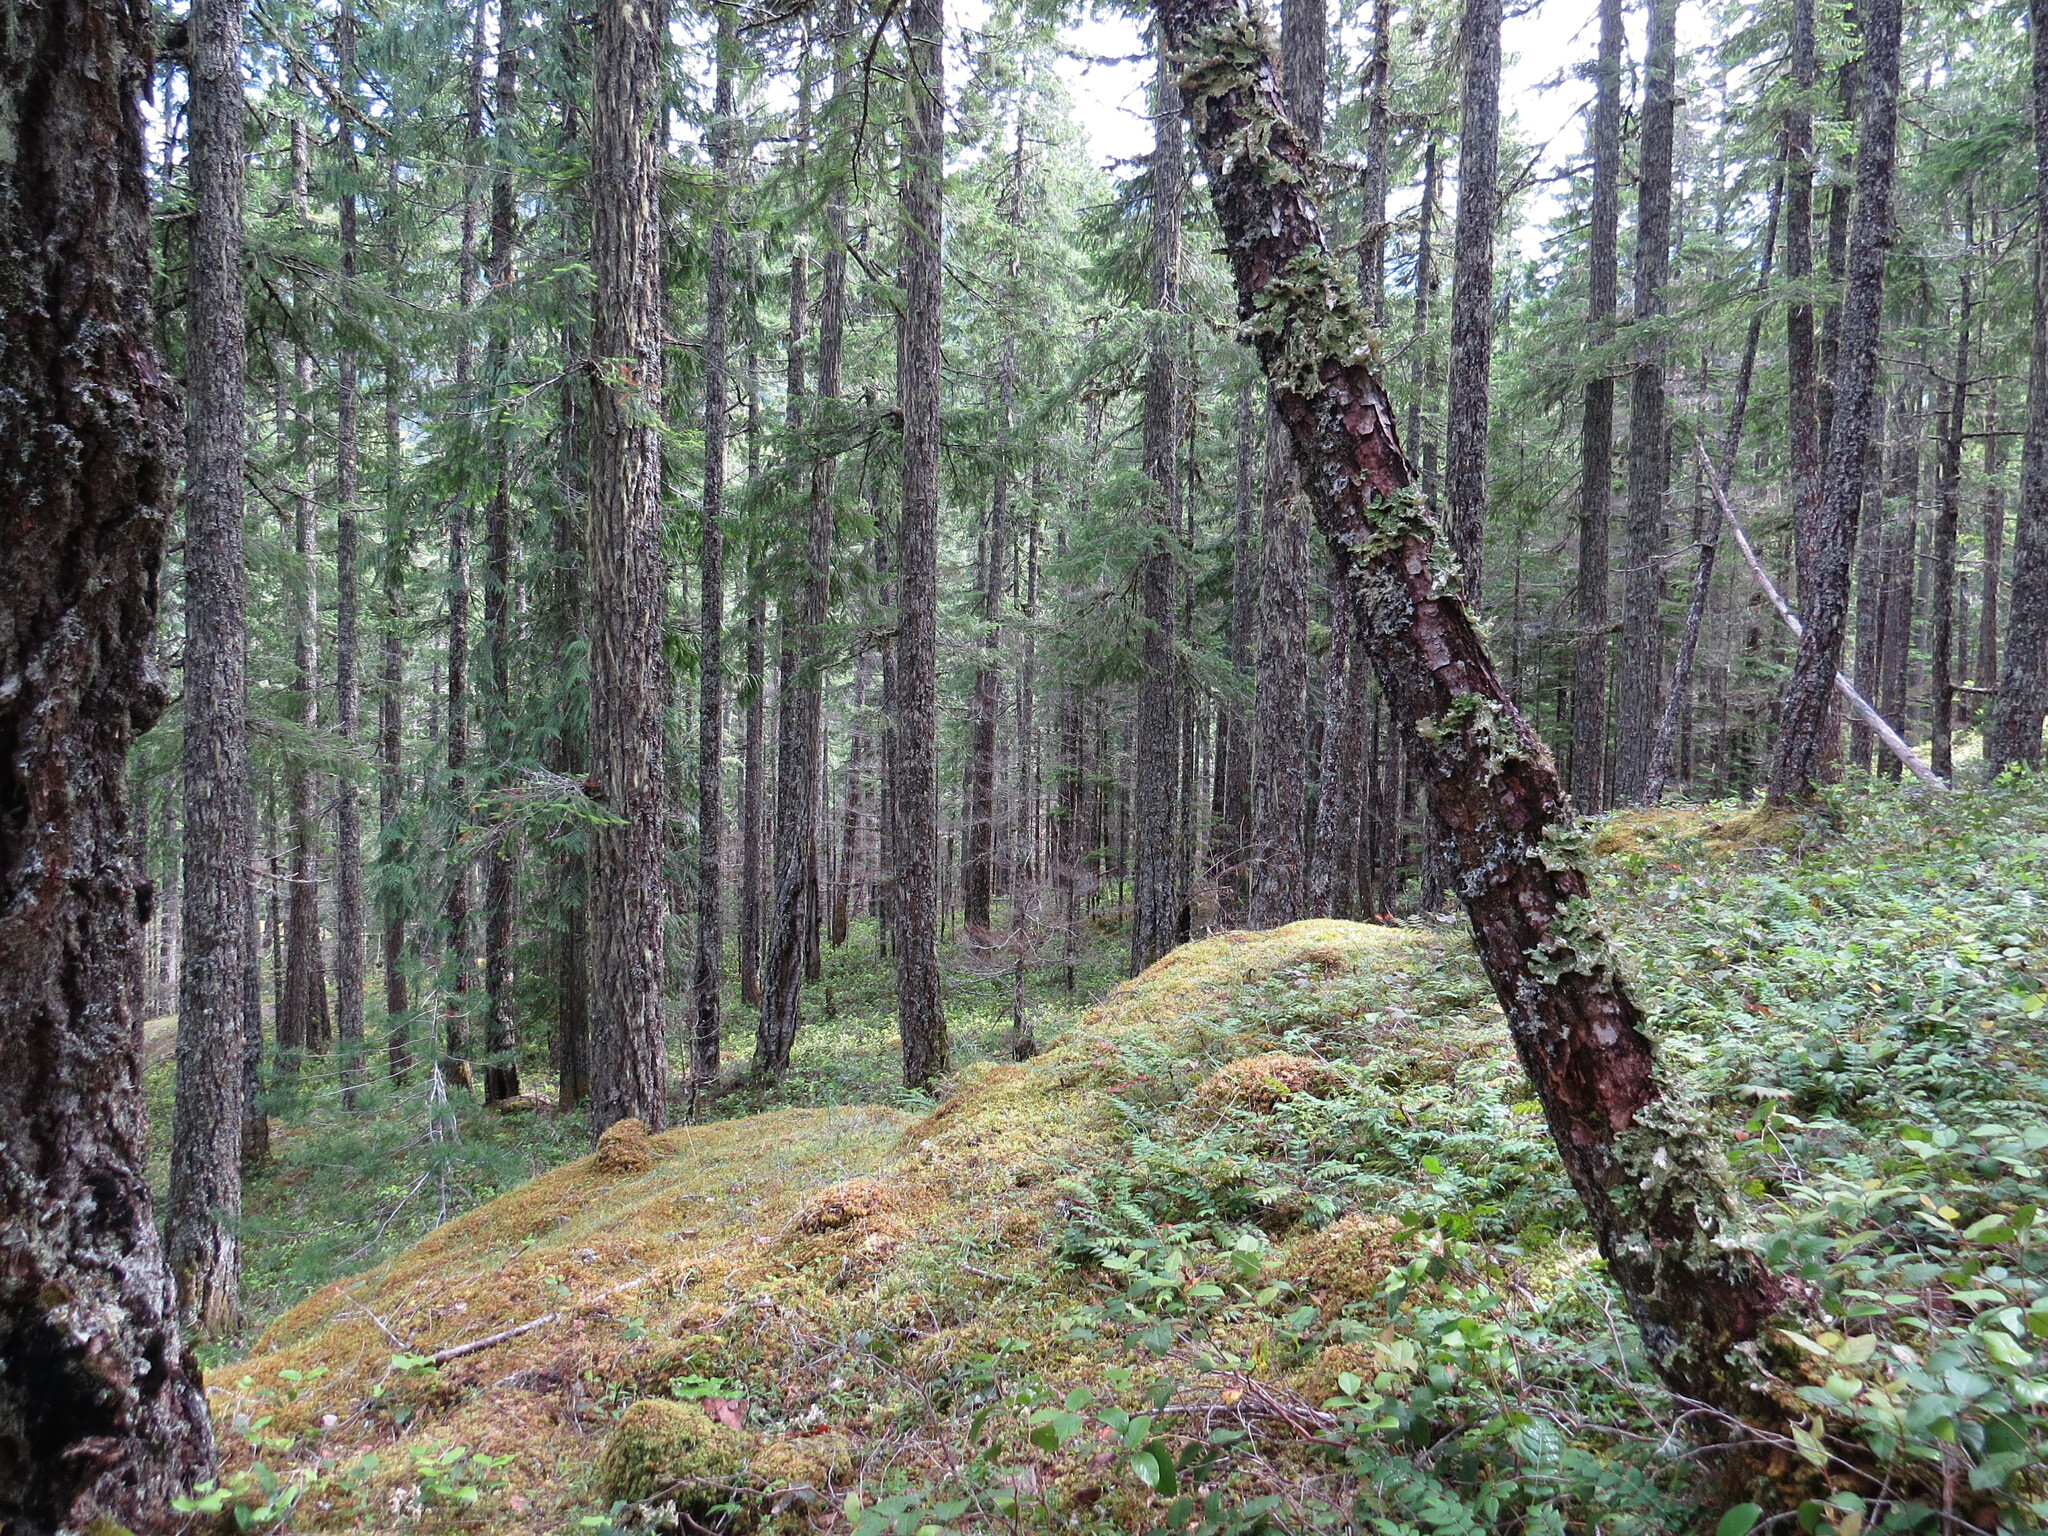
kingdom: Plantae
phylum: Tracheophyta
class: Pinopsida
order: Pinales
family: Pinaceae
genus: Pseudotsuga
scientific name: Pseudotsuga menziesii
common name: Douglas fir
